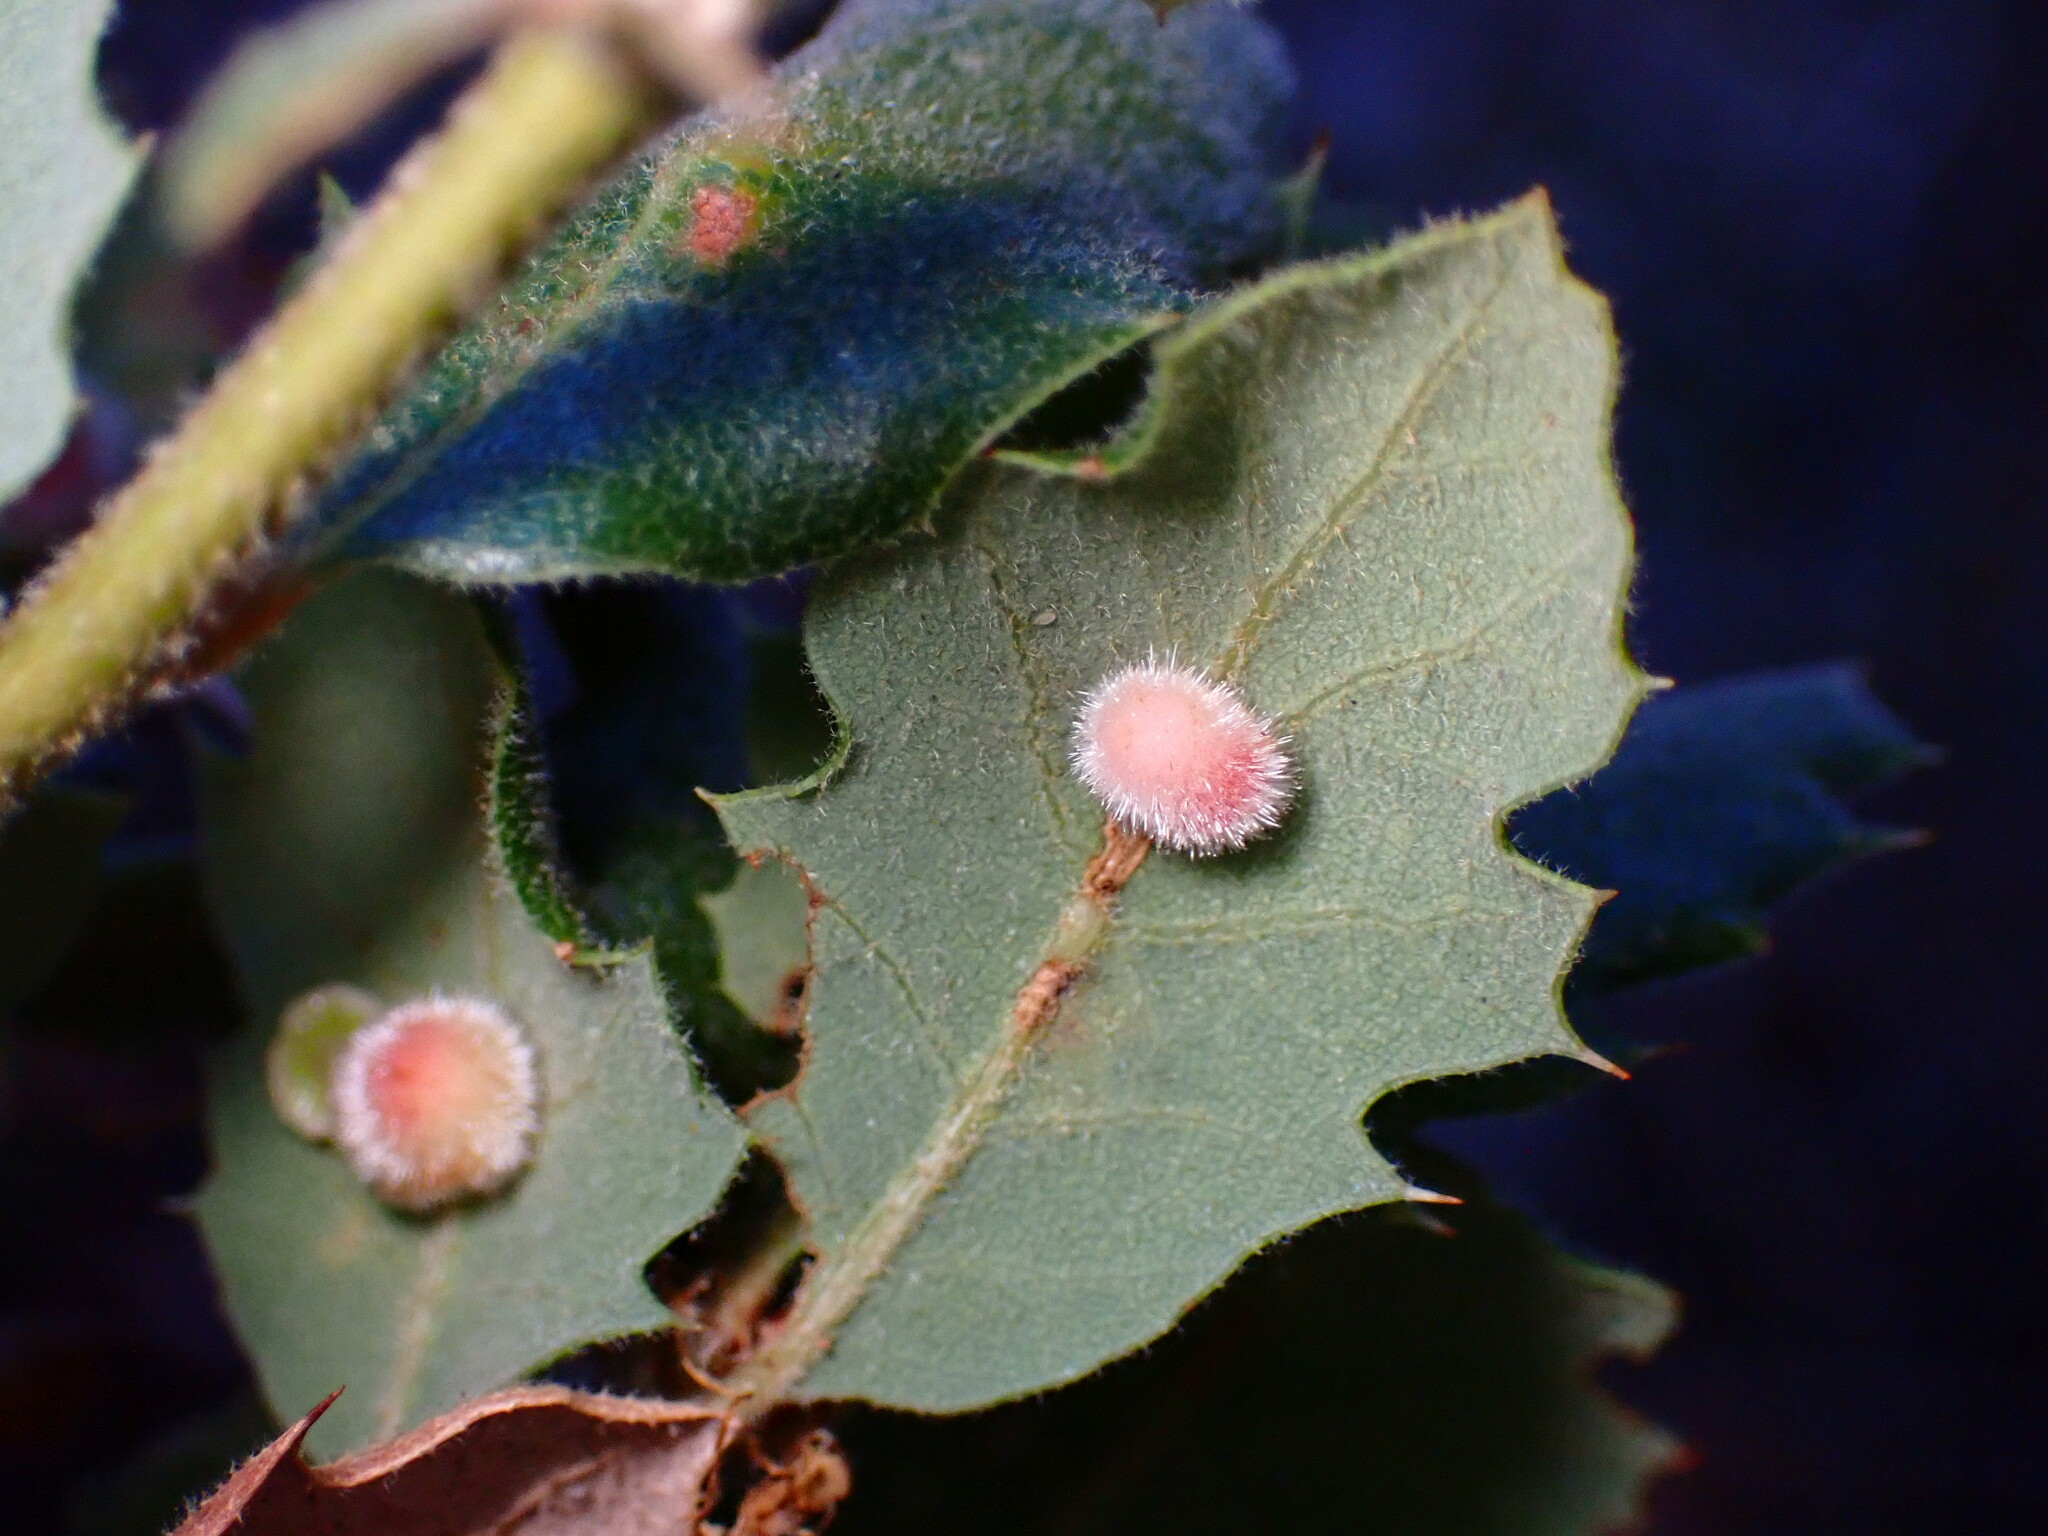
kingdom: Animalia
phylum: Arthropoda
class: Insecta
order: Hymenoptera
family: Cynipidae
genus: Atrusca
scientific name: Atrusca
